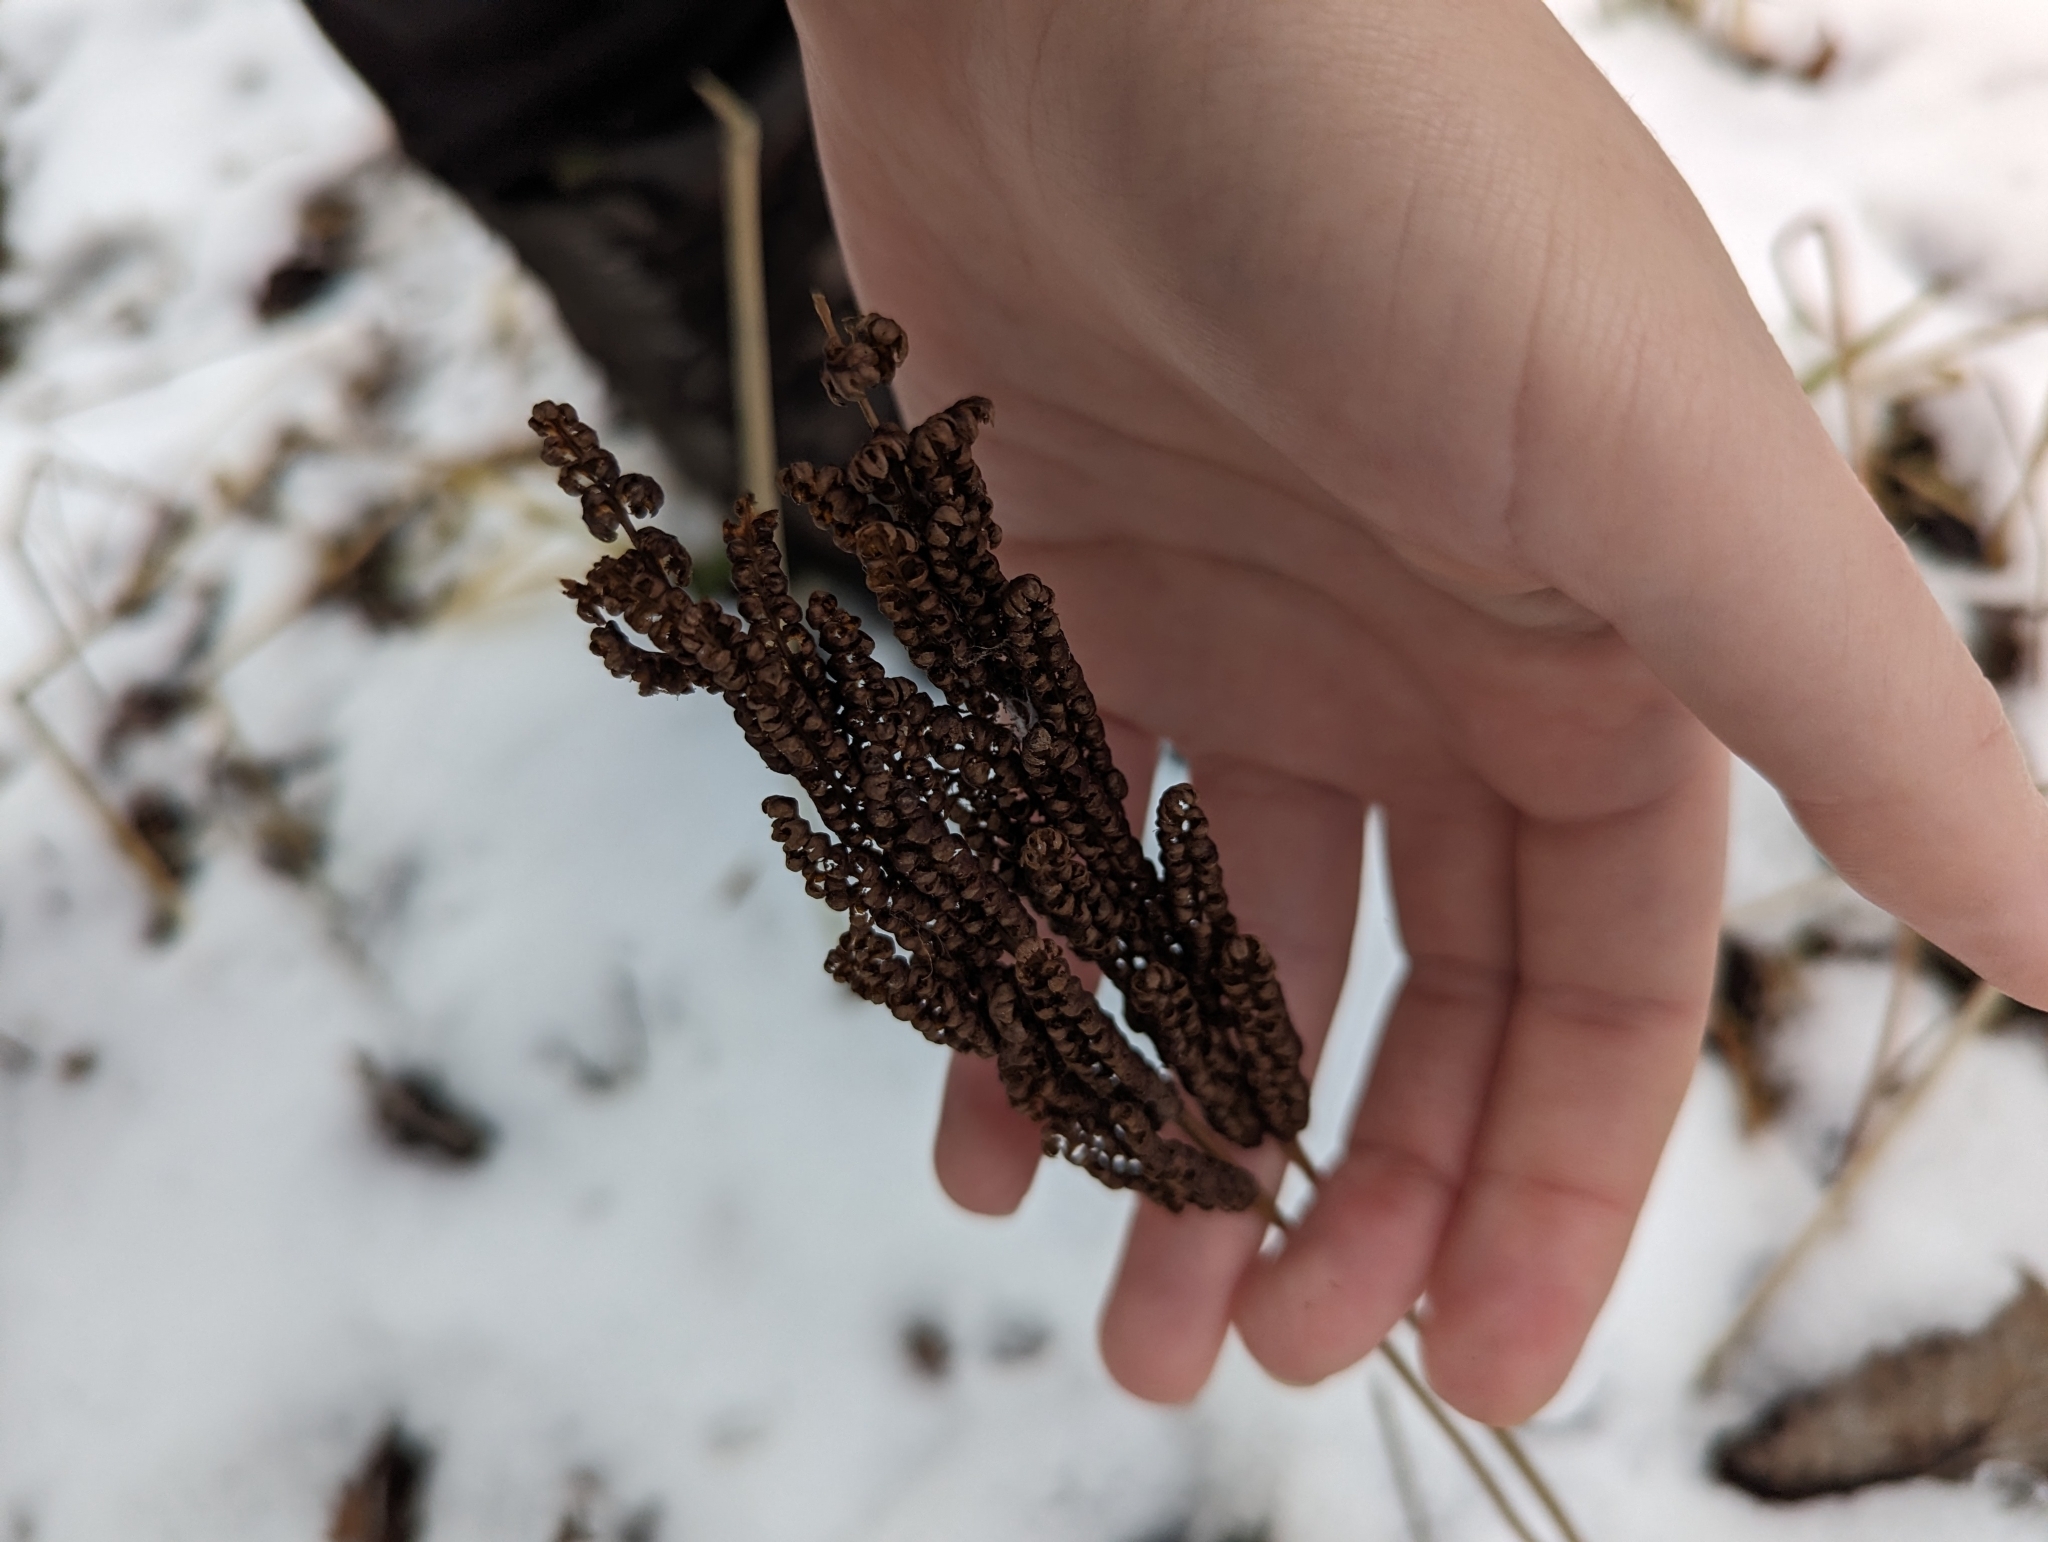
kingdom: Plantae
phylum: Tracheophyta
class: Polypodiopsida
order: Polypodiales
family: Onocleaceae
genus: Onoclea
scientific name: Onoclea sensibilis
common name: Sensitive fern
